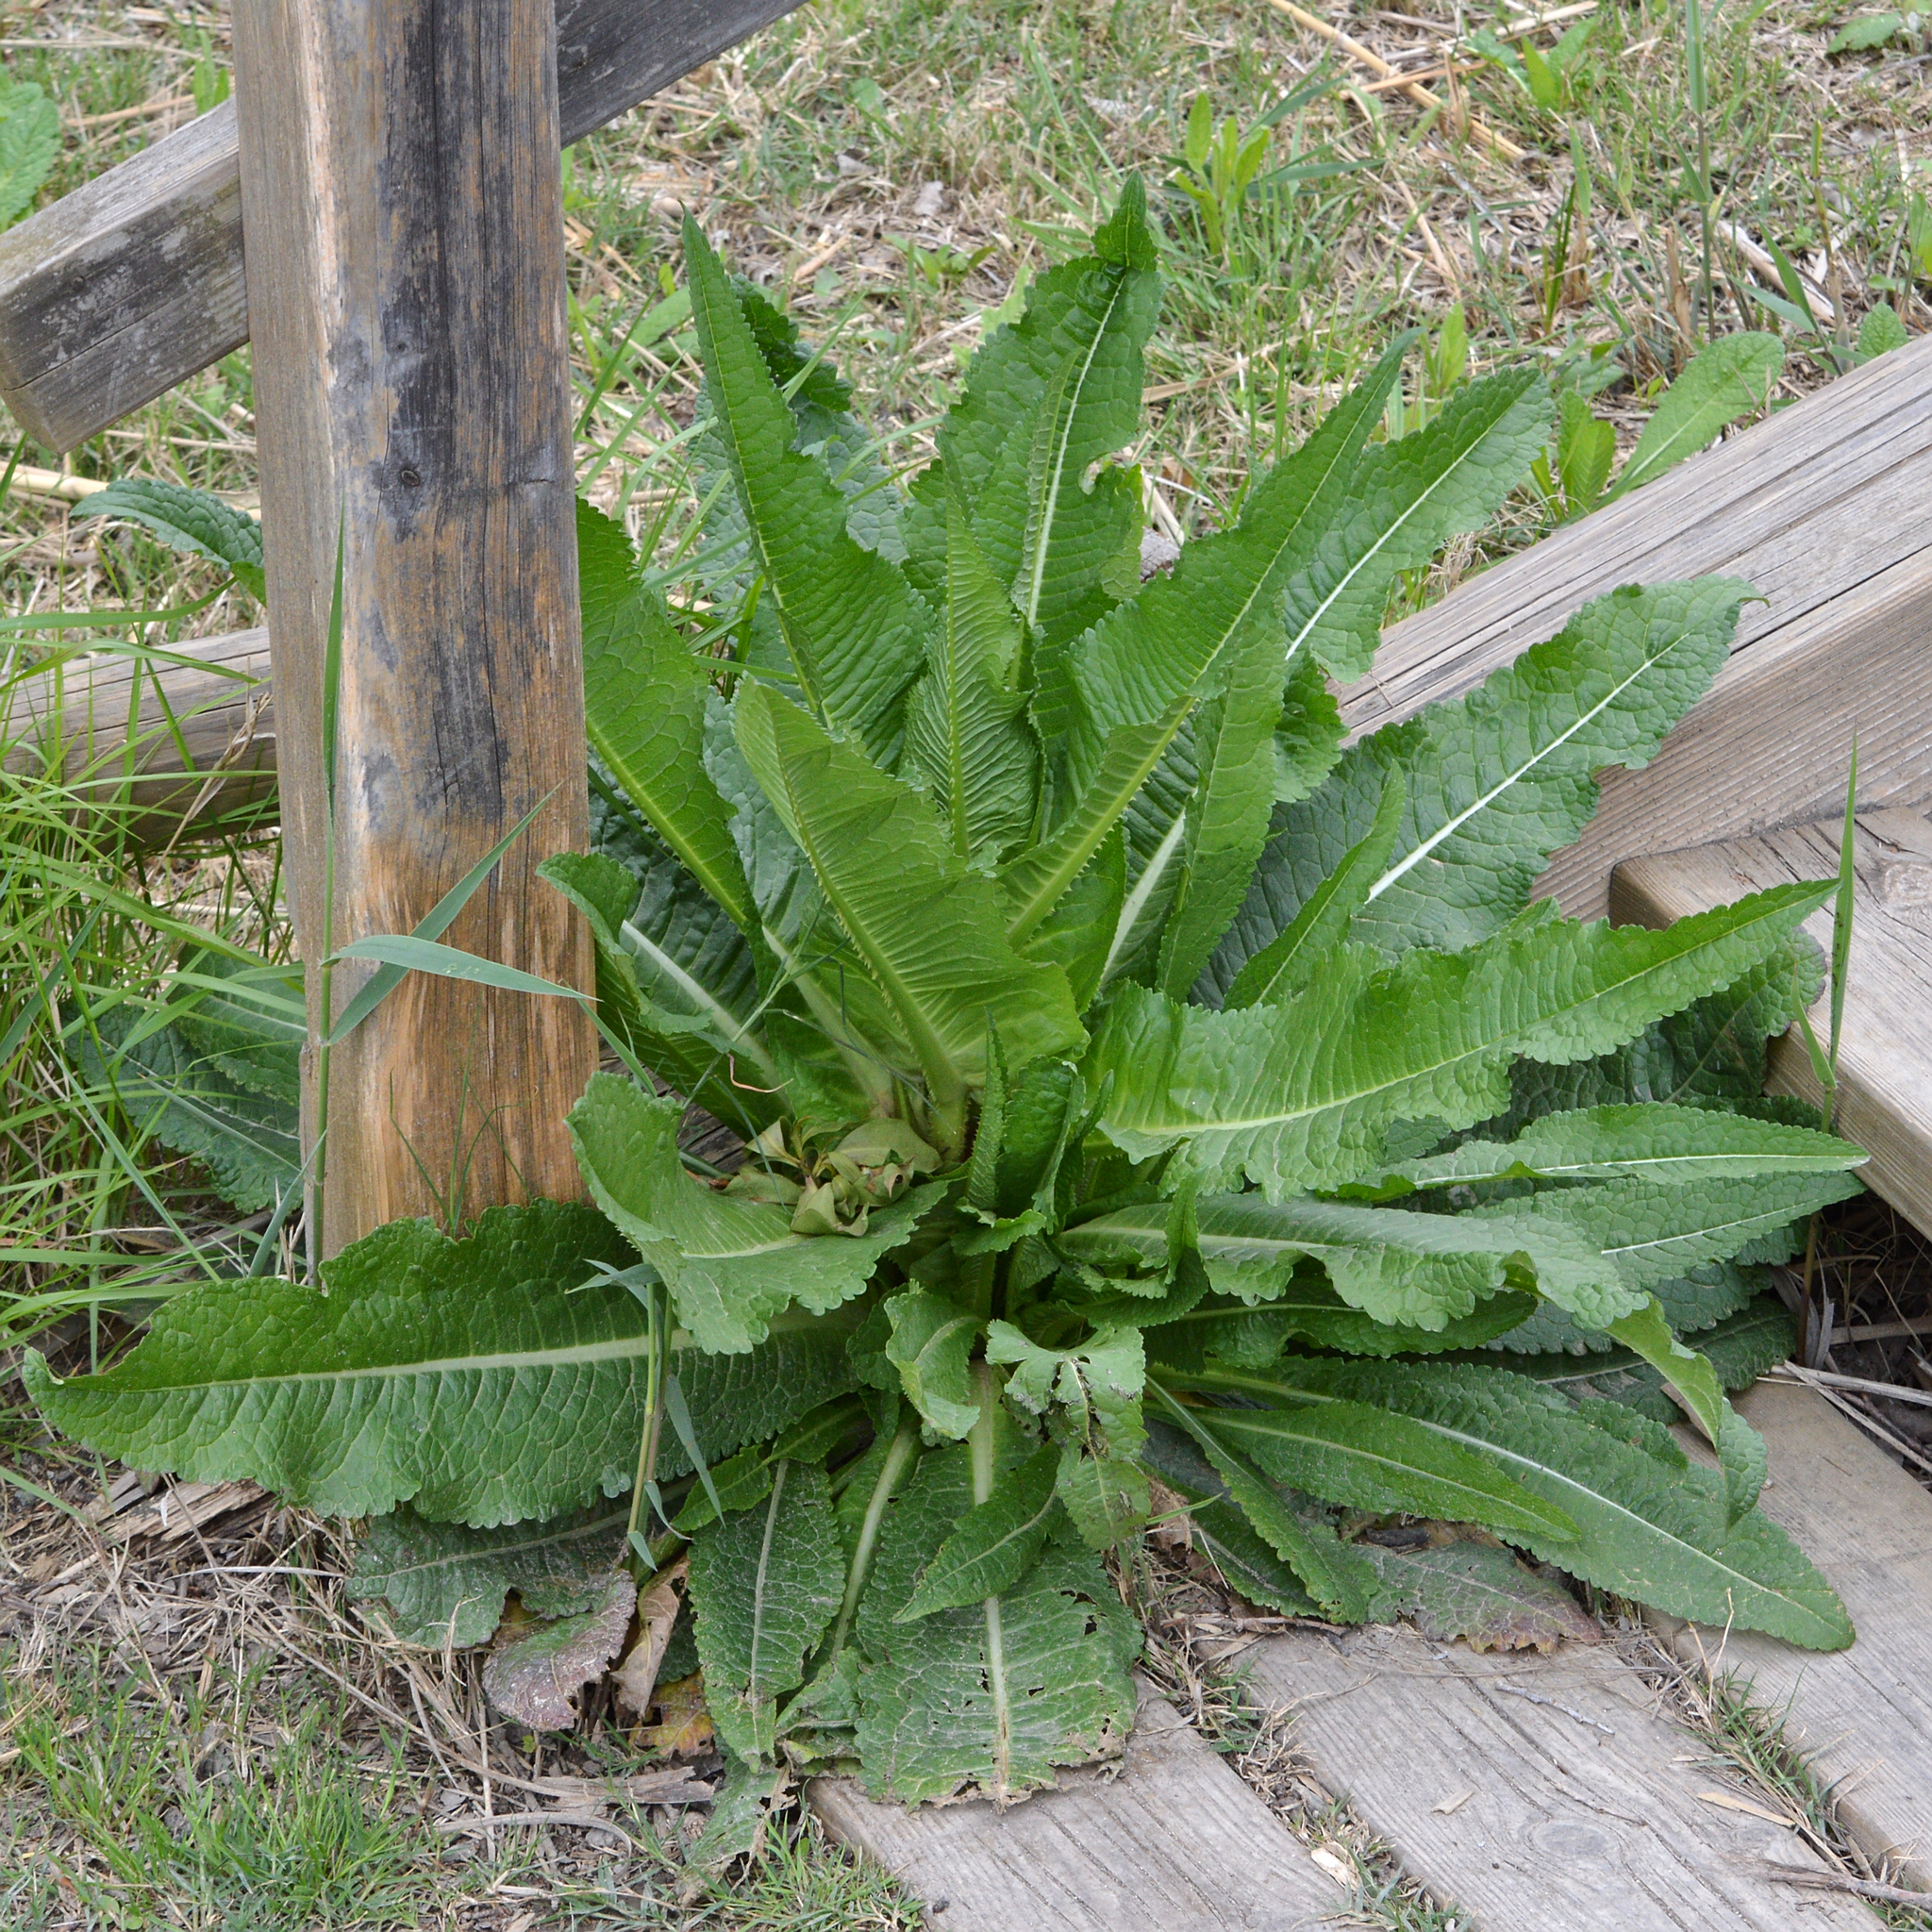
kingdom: Plantae
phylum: Tracheophyta
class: Magnoliopsida
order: Dipsacales
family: Caprifoliaceae
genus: Dipsacus
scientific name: Dipsacus fullonum
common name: Teasel
